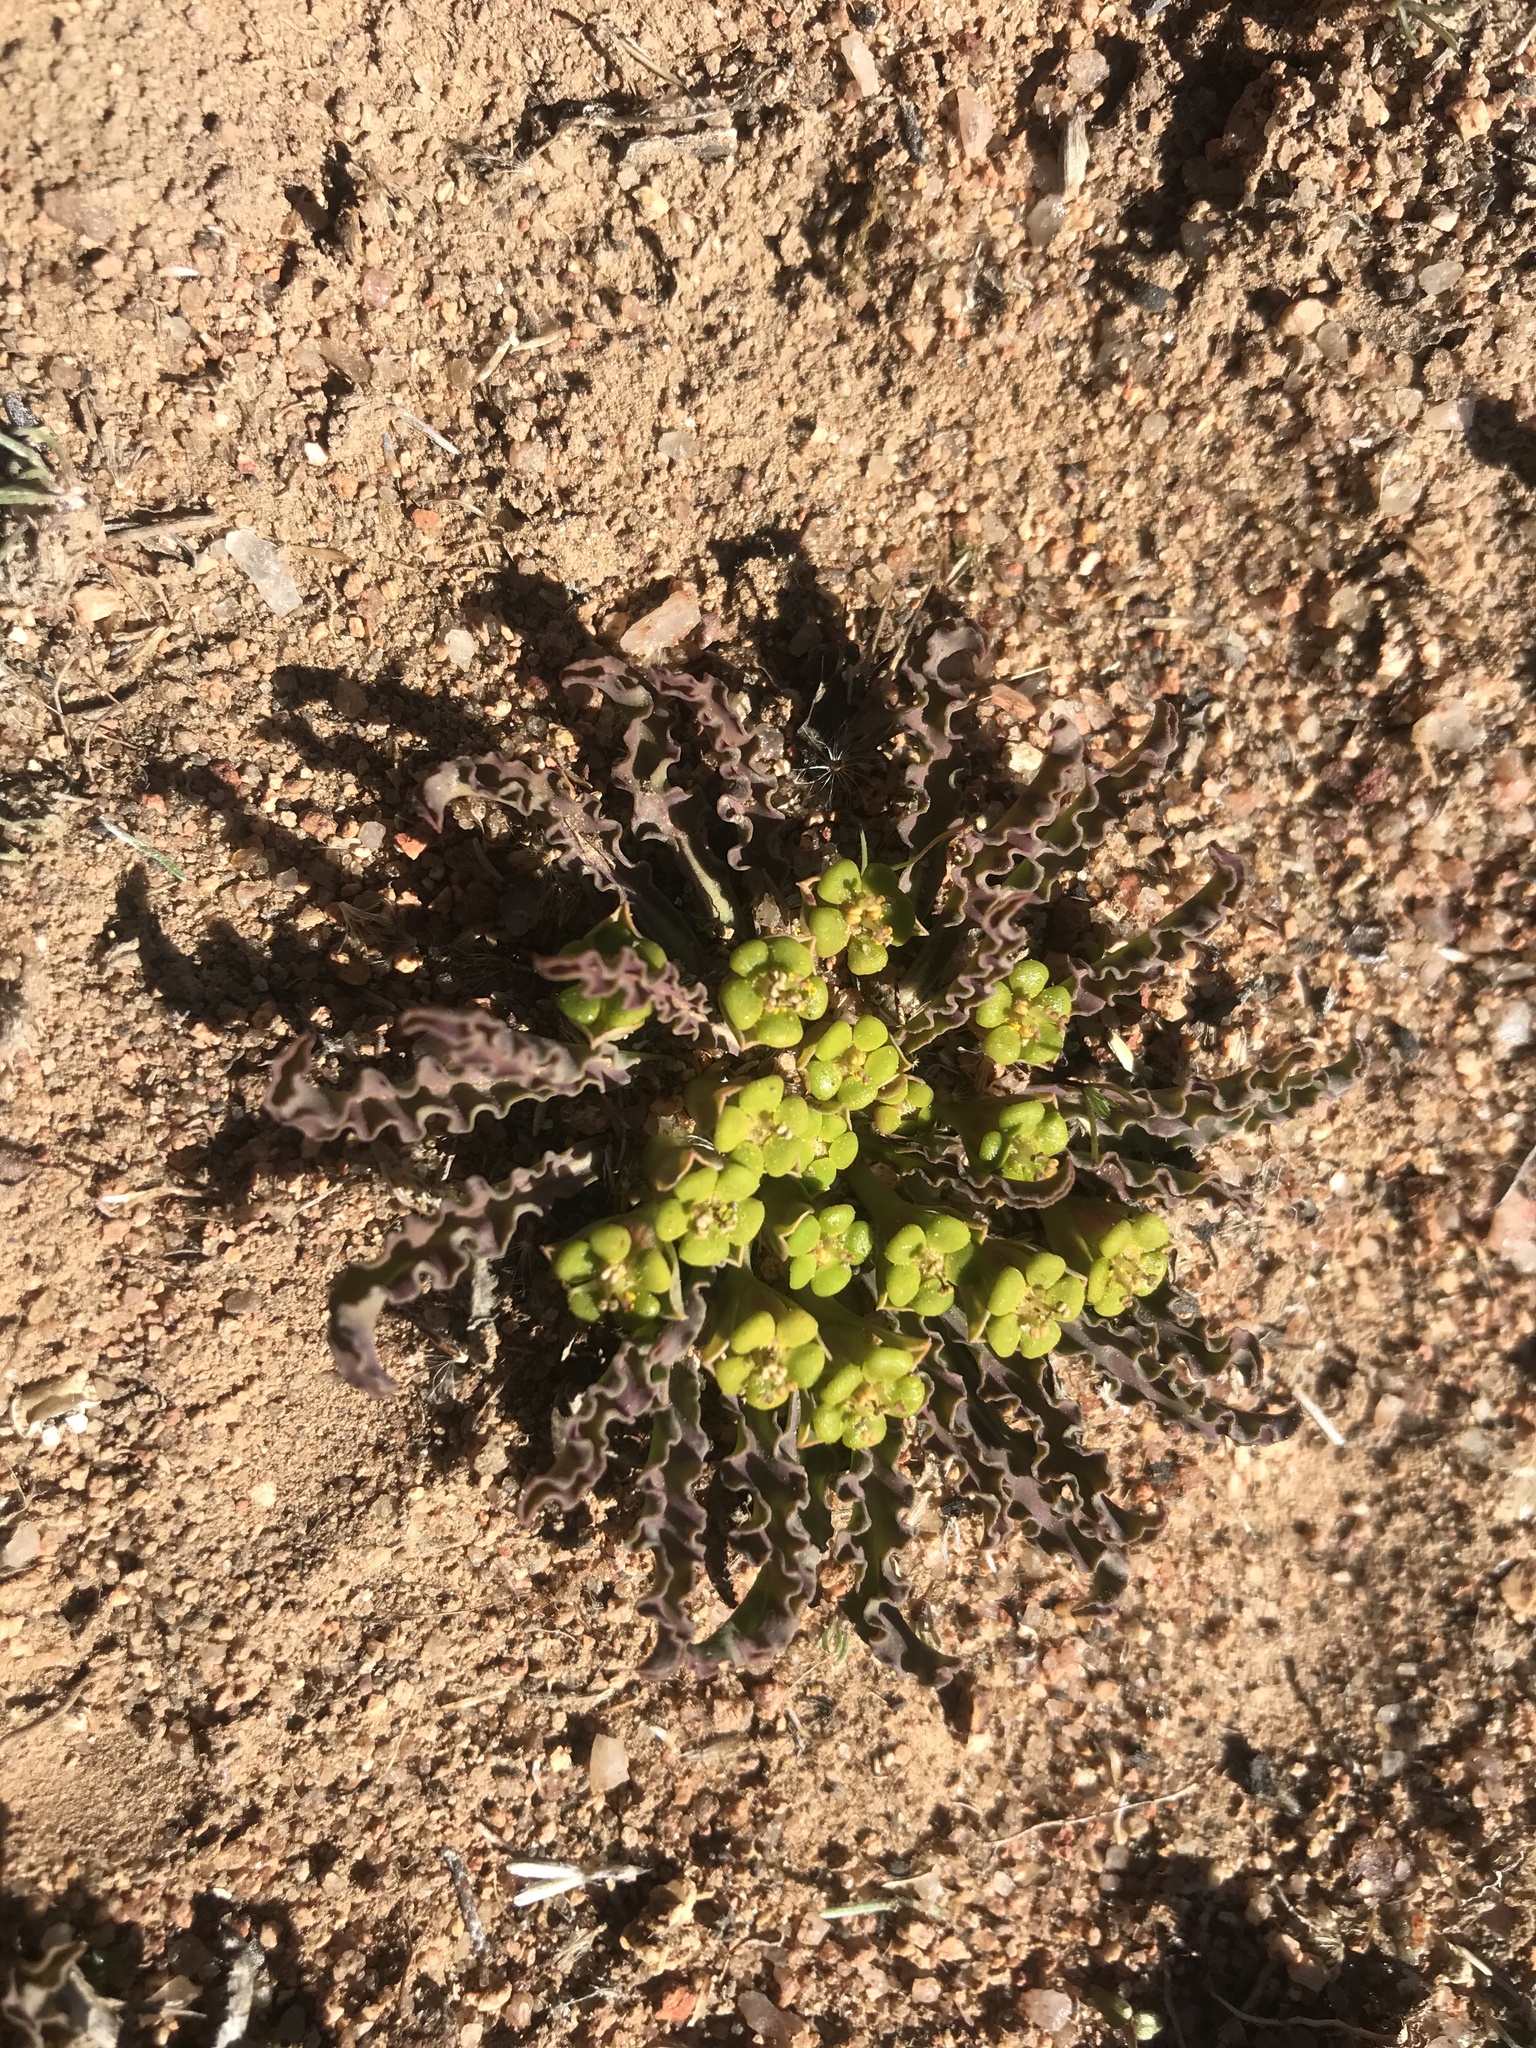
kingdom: Plantae
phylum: Tracheophyta
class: Magnoliopsida
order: Malpighiales
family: Euphorbiaceae
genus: Euphorbia
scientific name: Euphorbia tuberosa
